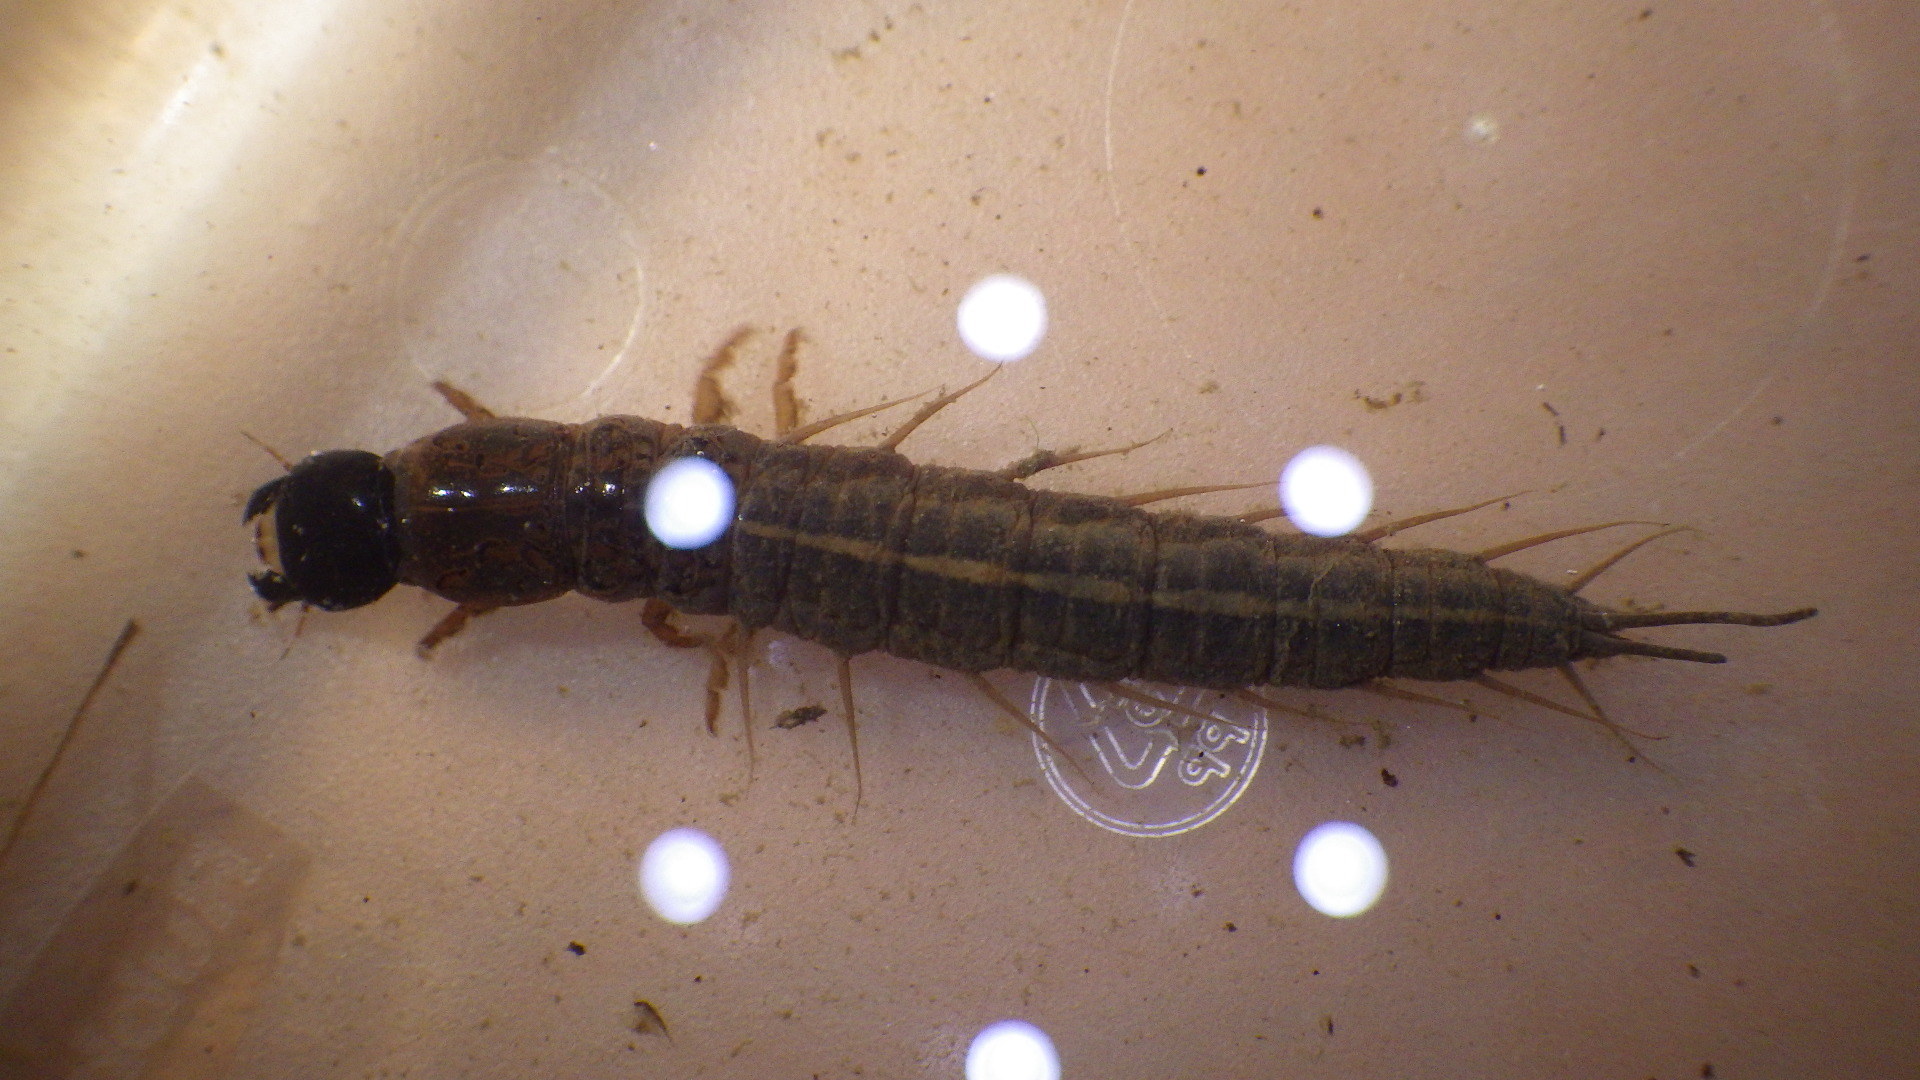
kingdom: Animalia
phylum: Arthropoda
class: Insecta
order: Megaloptera
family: Corydalidae
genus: Chauliodes
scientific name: Chauliodes pectinicornis
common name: Summer fishfly
